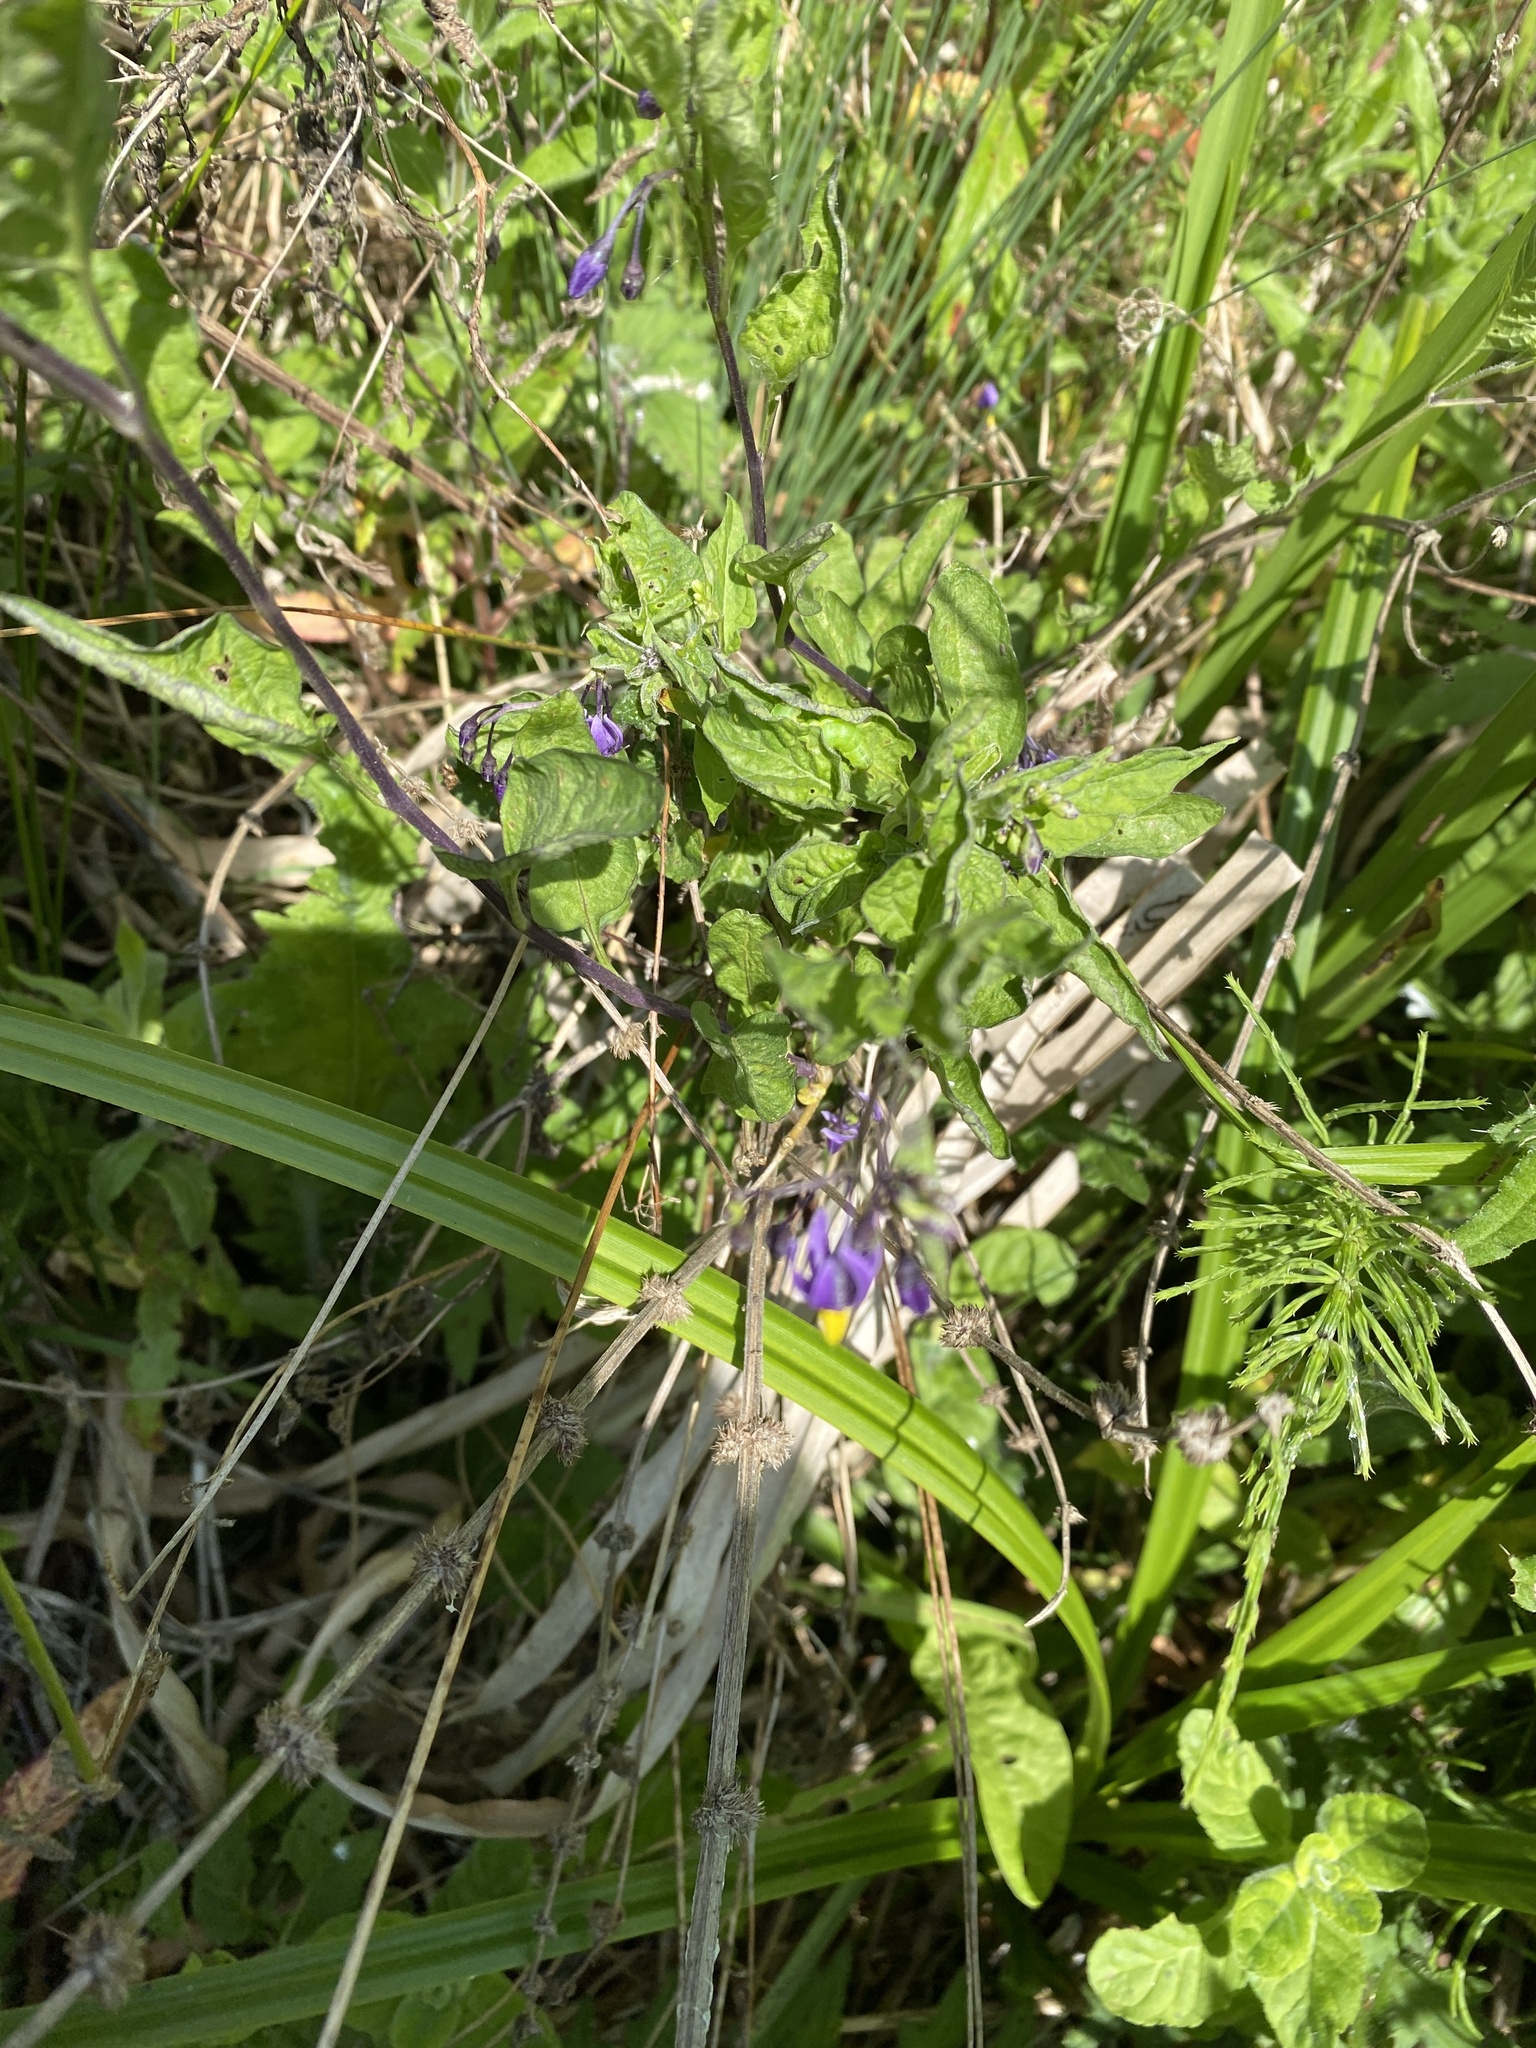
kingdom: Plantae
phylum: Tracheophyta
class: Magnoliopsida
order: Solanales
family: Solanaceae
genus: Solanum
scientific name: Solanum dulcamara
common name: Climbing nightshade
